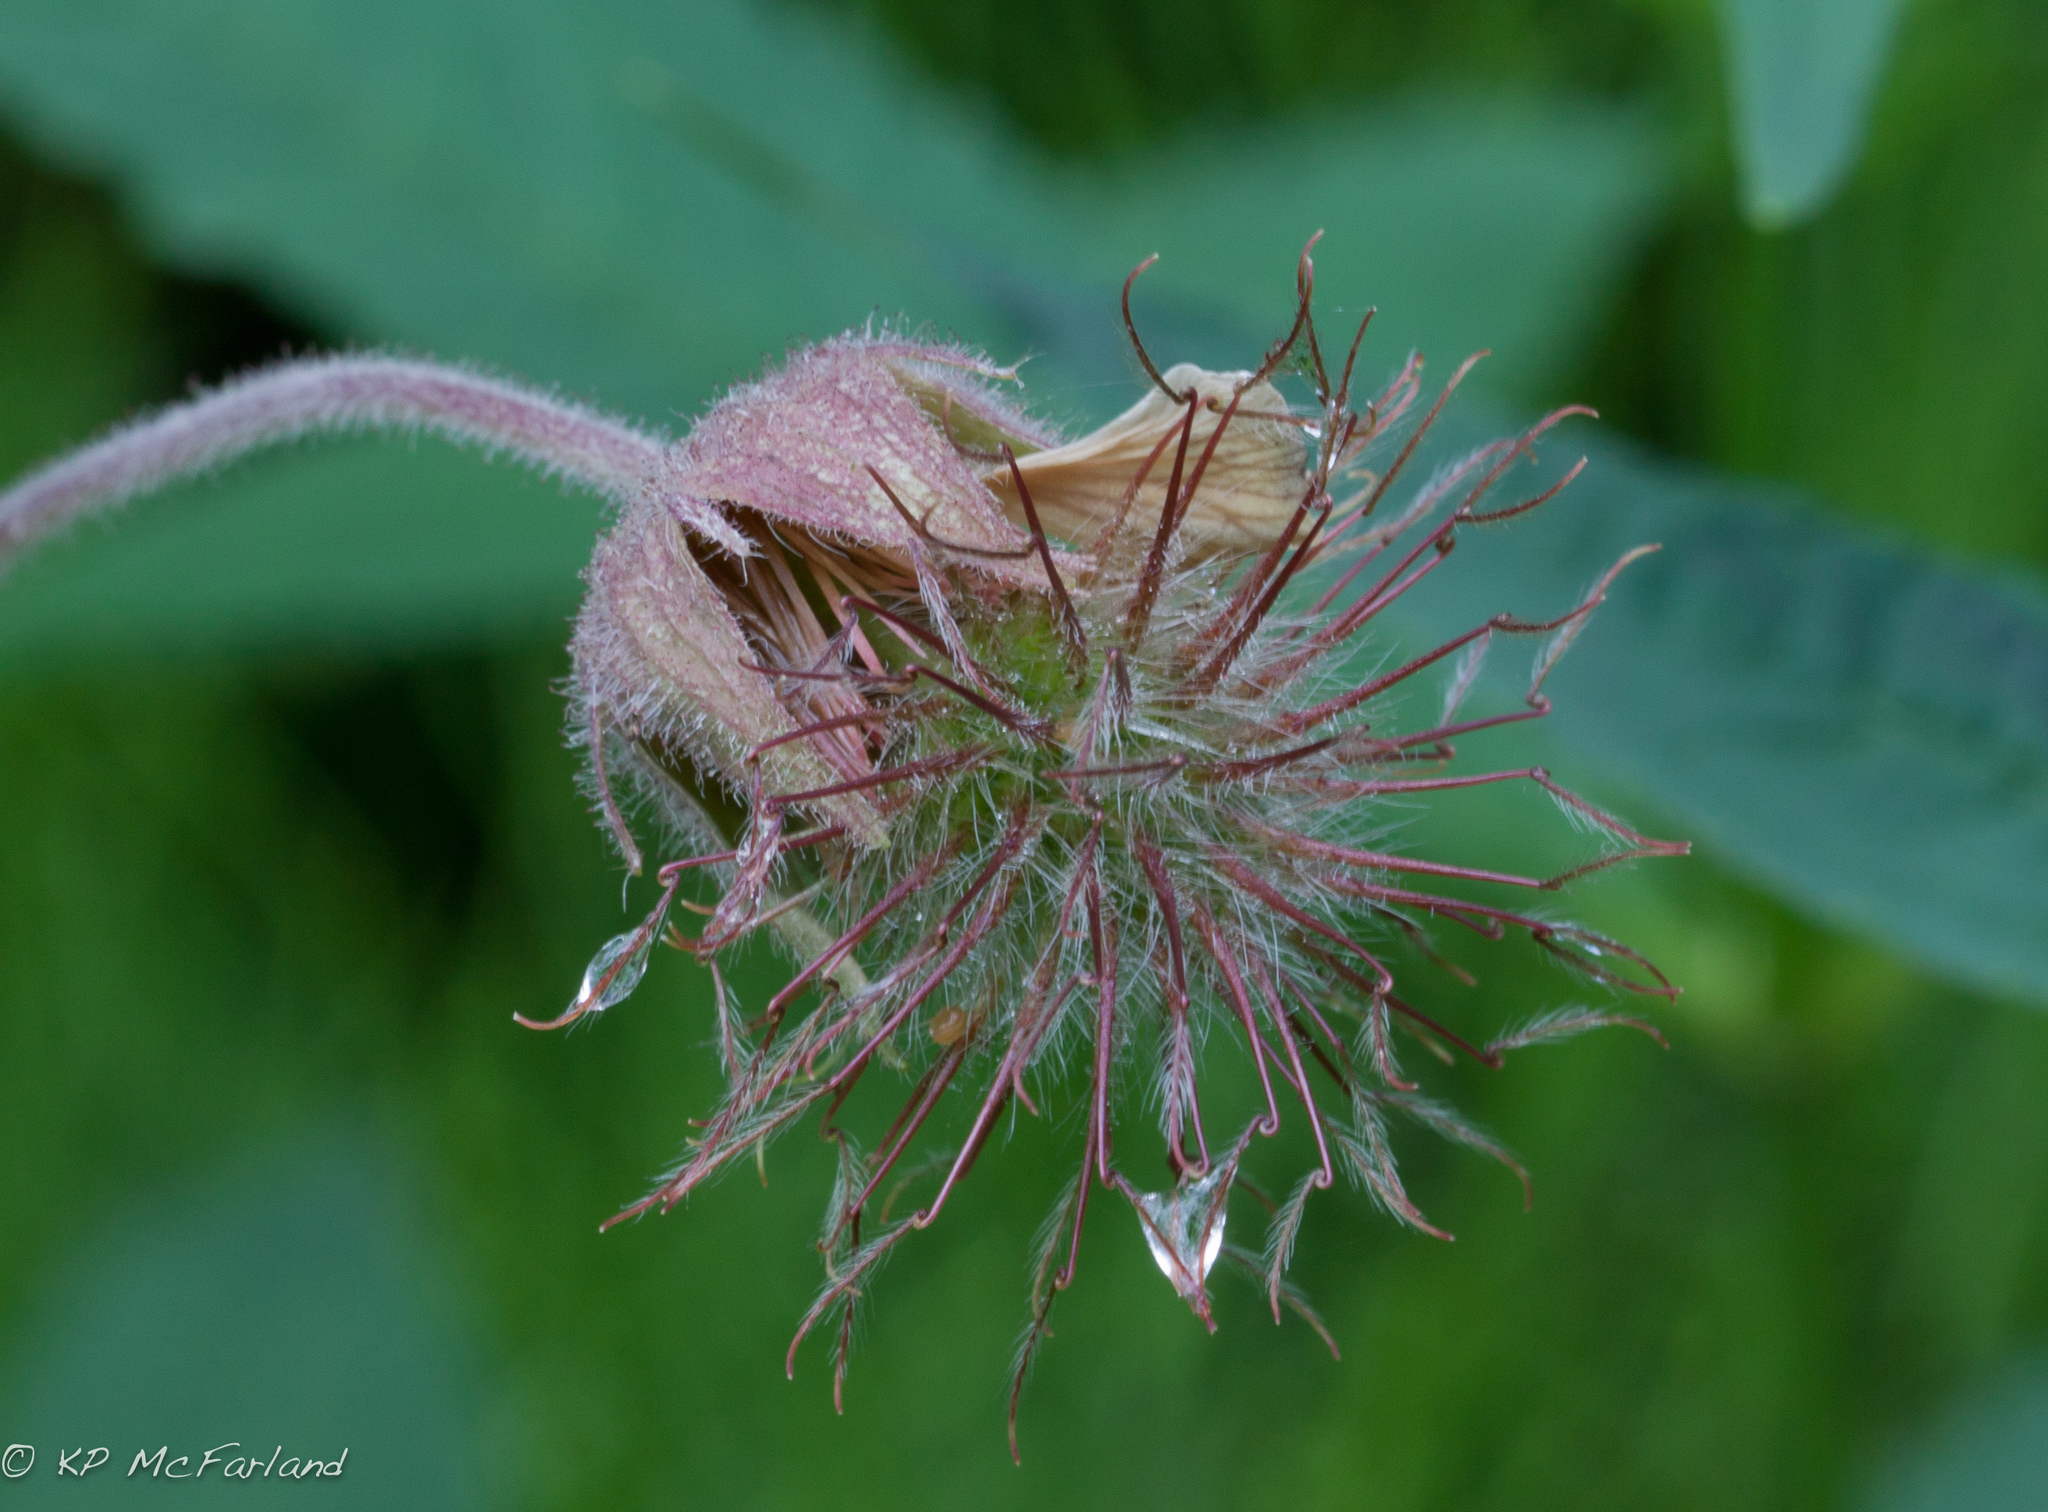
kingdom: Plantae
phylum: Tracheophyta
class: Magnoliopsida
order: Rosales
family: Rosaceae
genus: Geum
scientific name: Geum rivale
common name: Water avens
